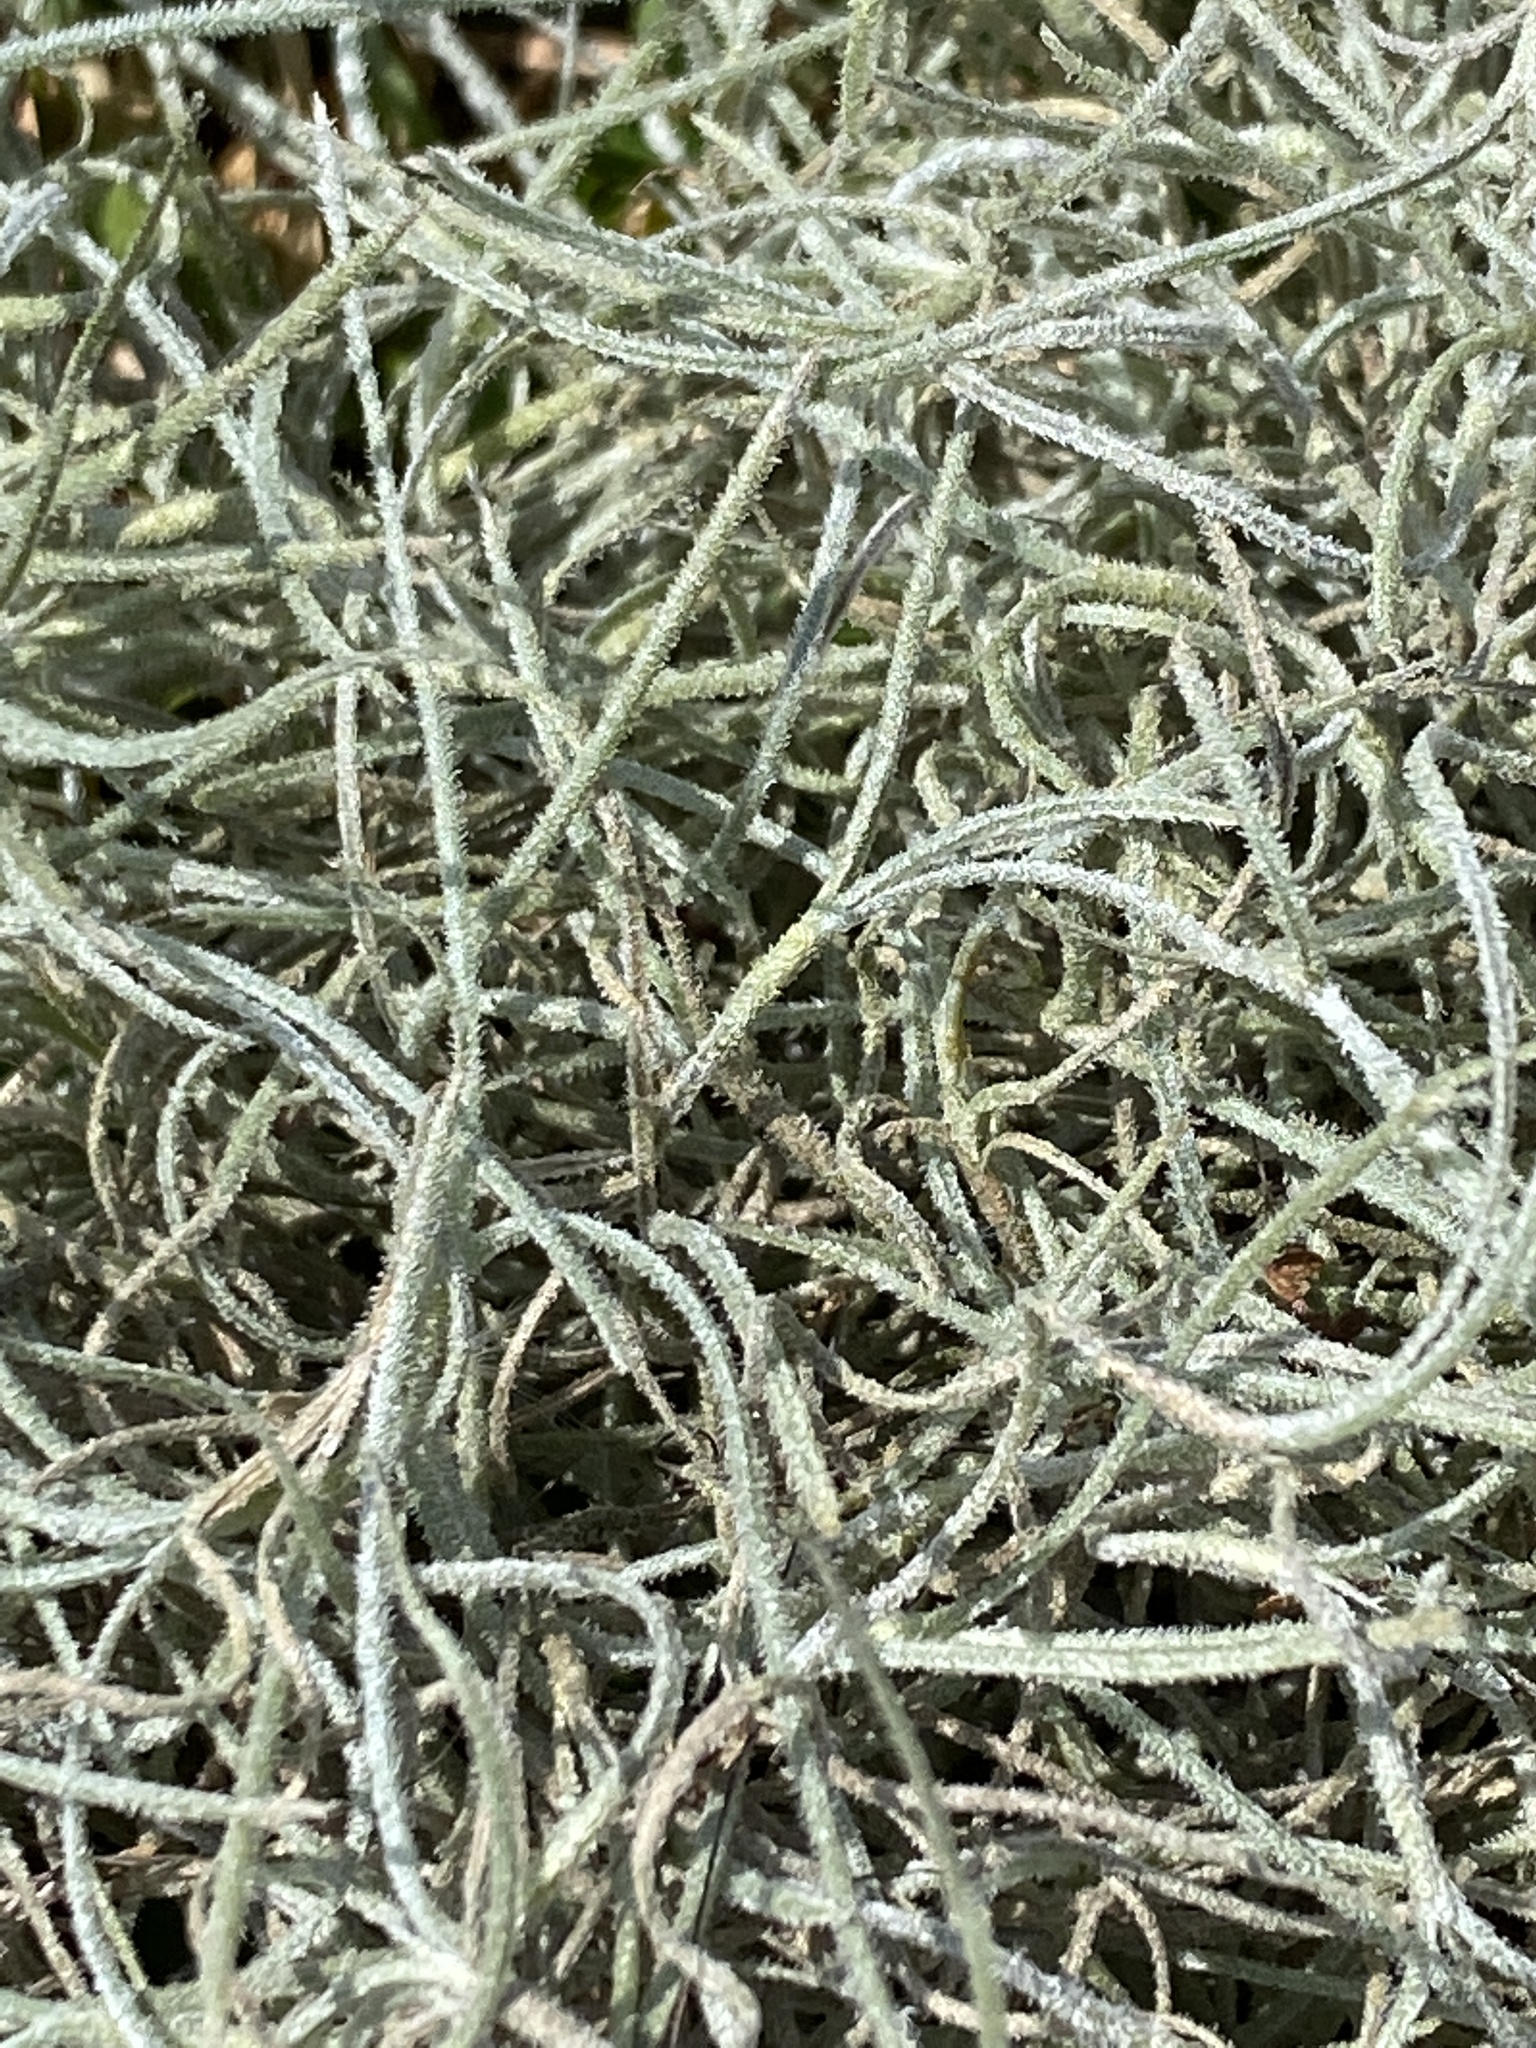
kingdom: Plantae
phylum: Tracheophyta
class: Liliopsida
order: Poales
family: Bromeliaceae
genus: Tillandsia
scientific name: Tillandsia usneoides
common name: Spanish moss
